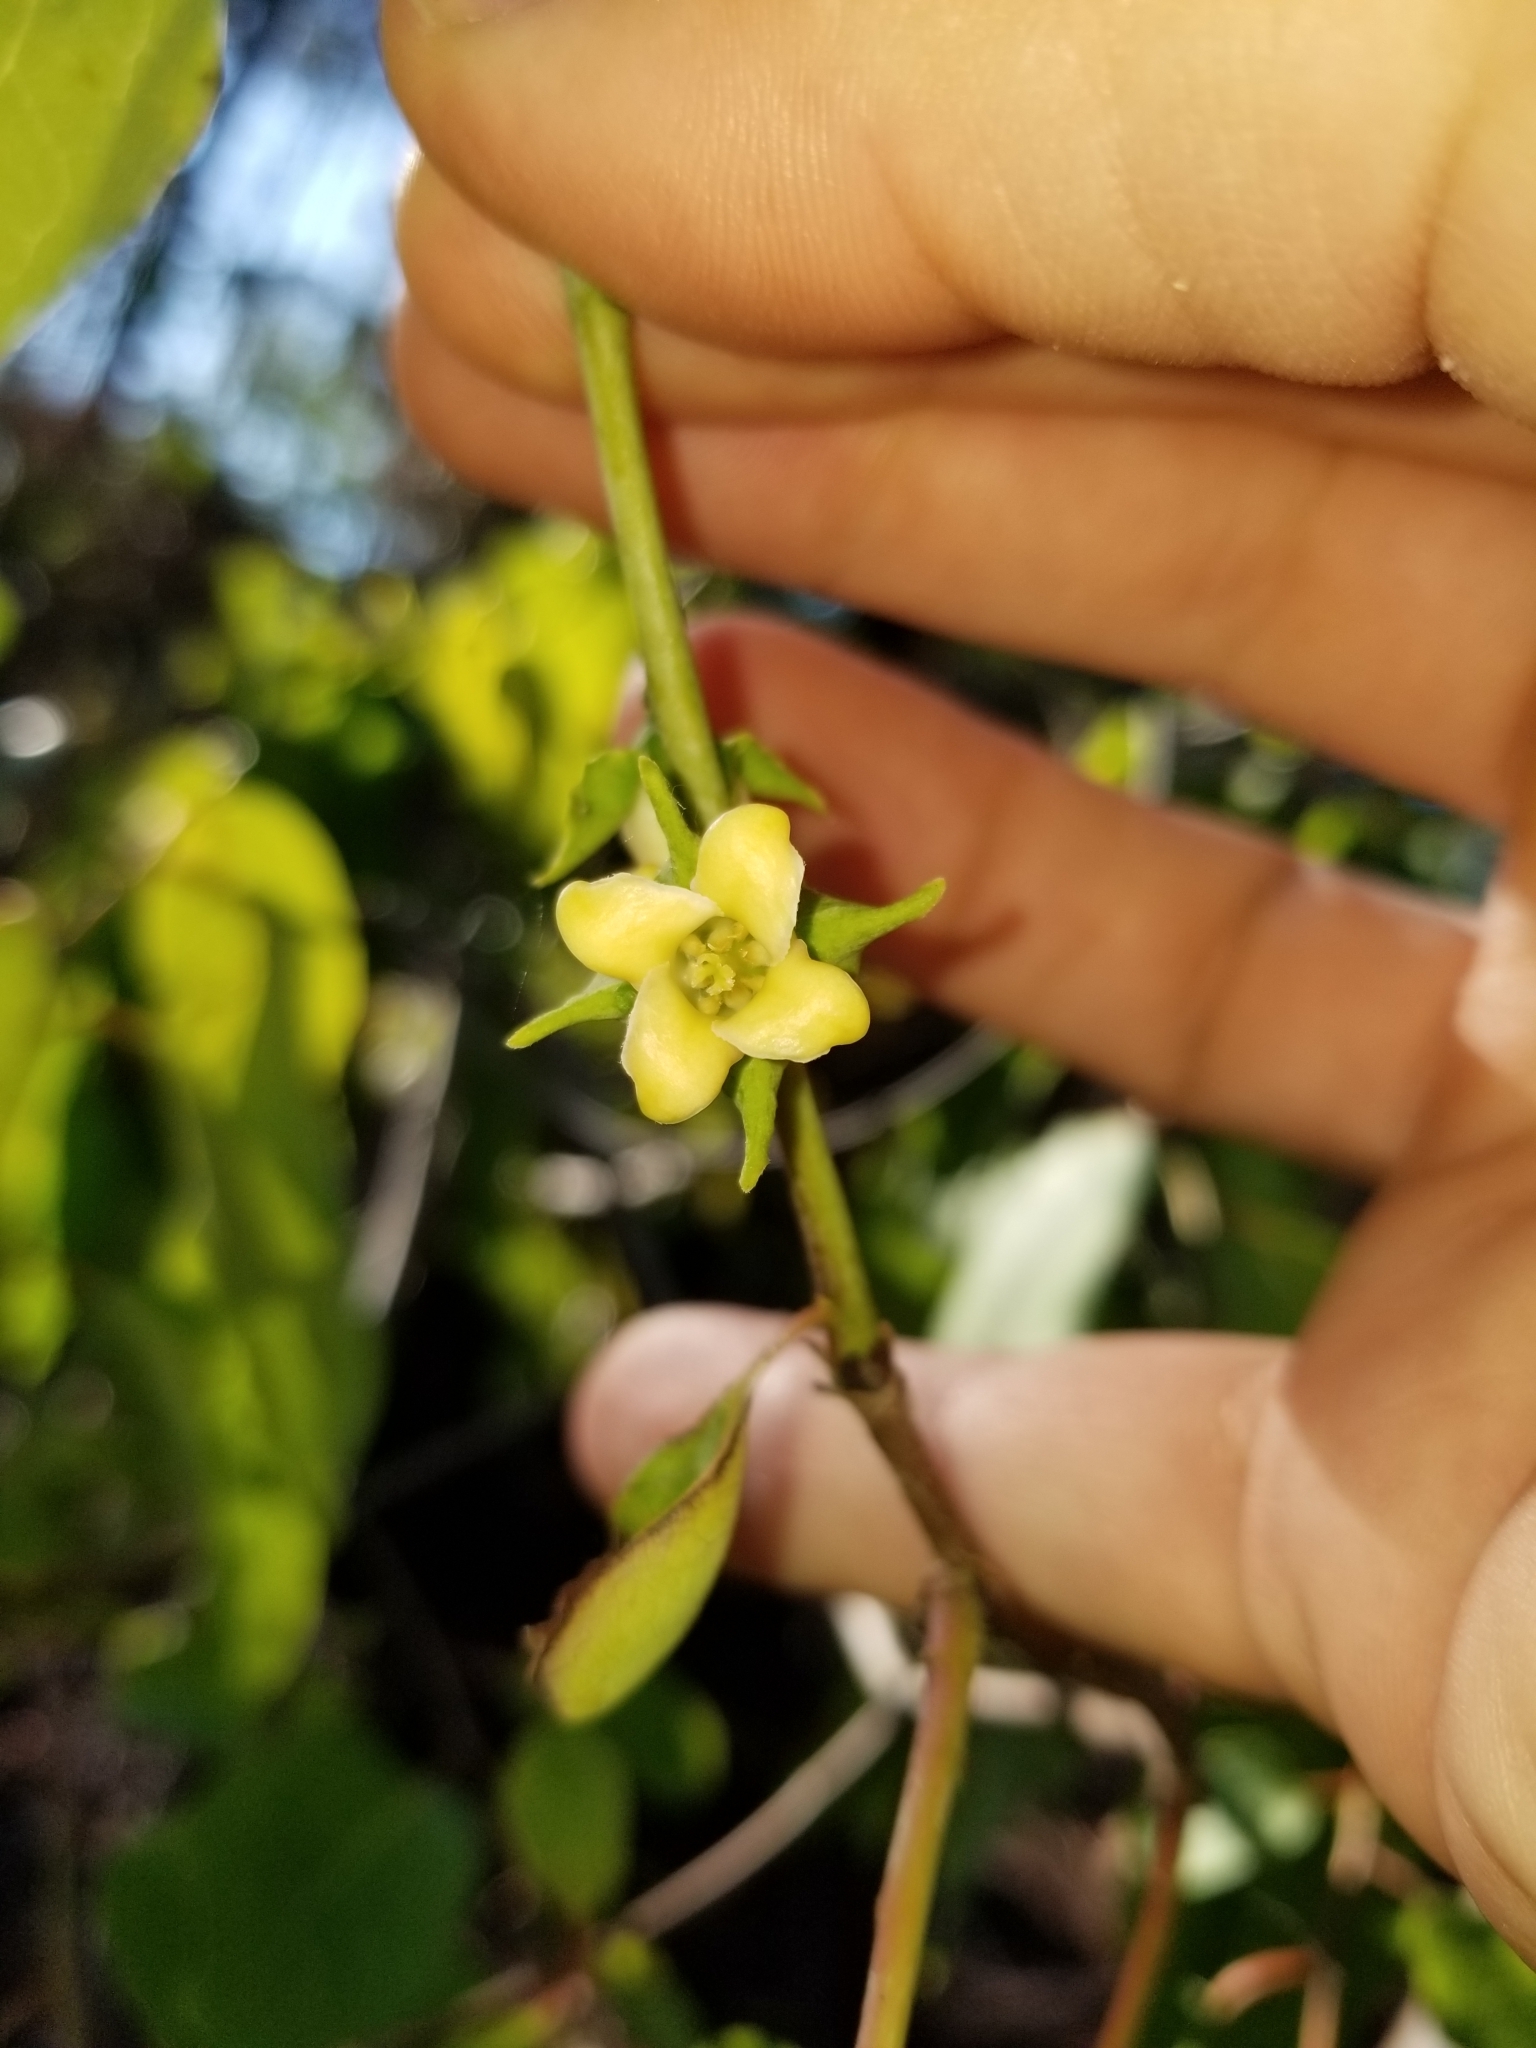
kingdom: Plantae
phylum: Tracheophyta
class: Magnoliopsida
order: Ericales
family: Ebenaceae
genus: Diospyros
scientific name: Diospyros virginiana
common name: Persimmon
